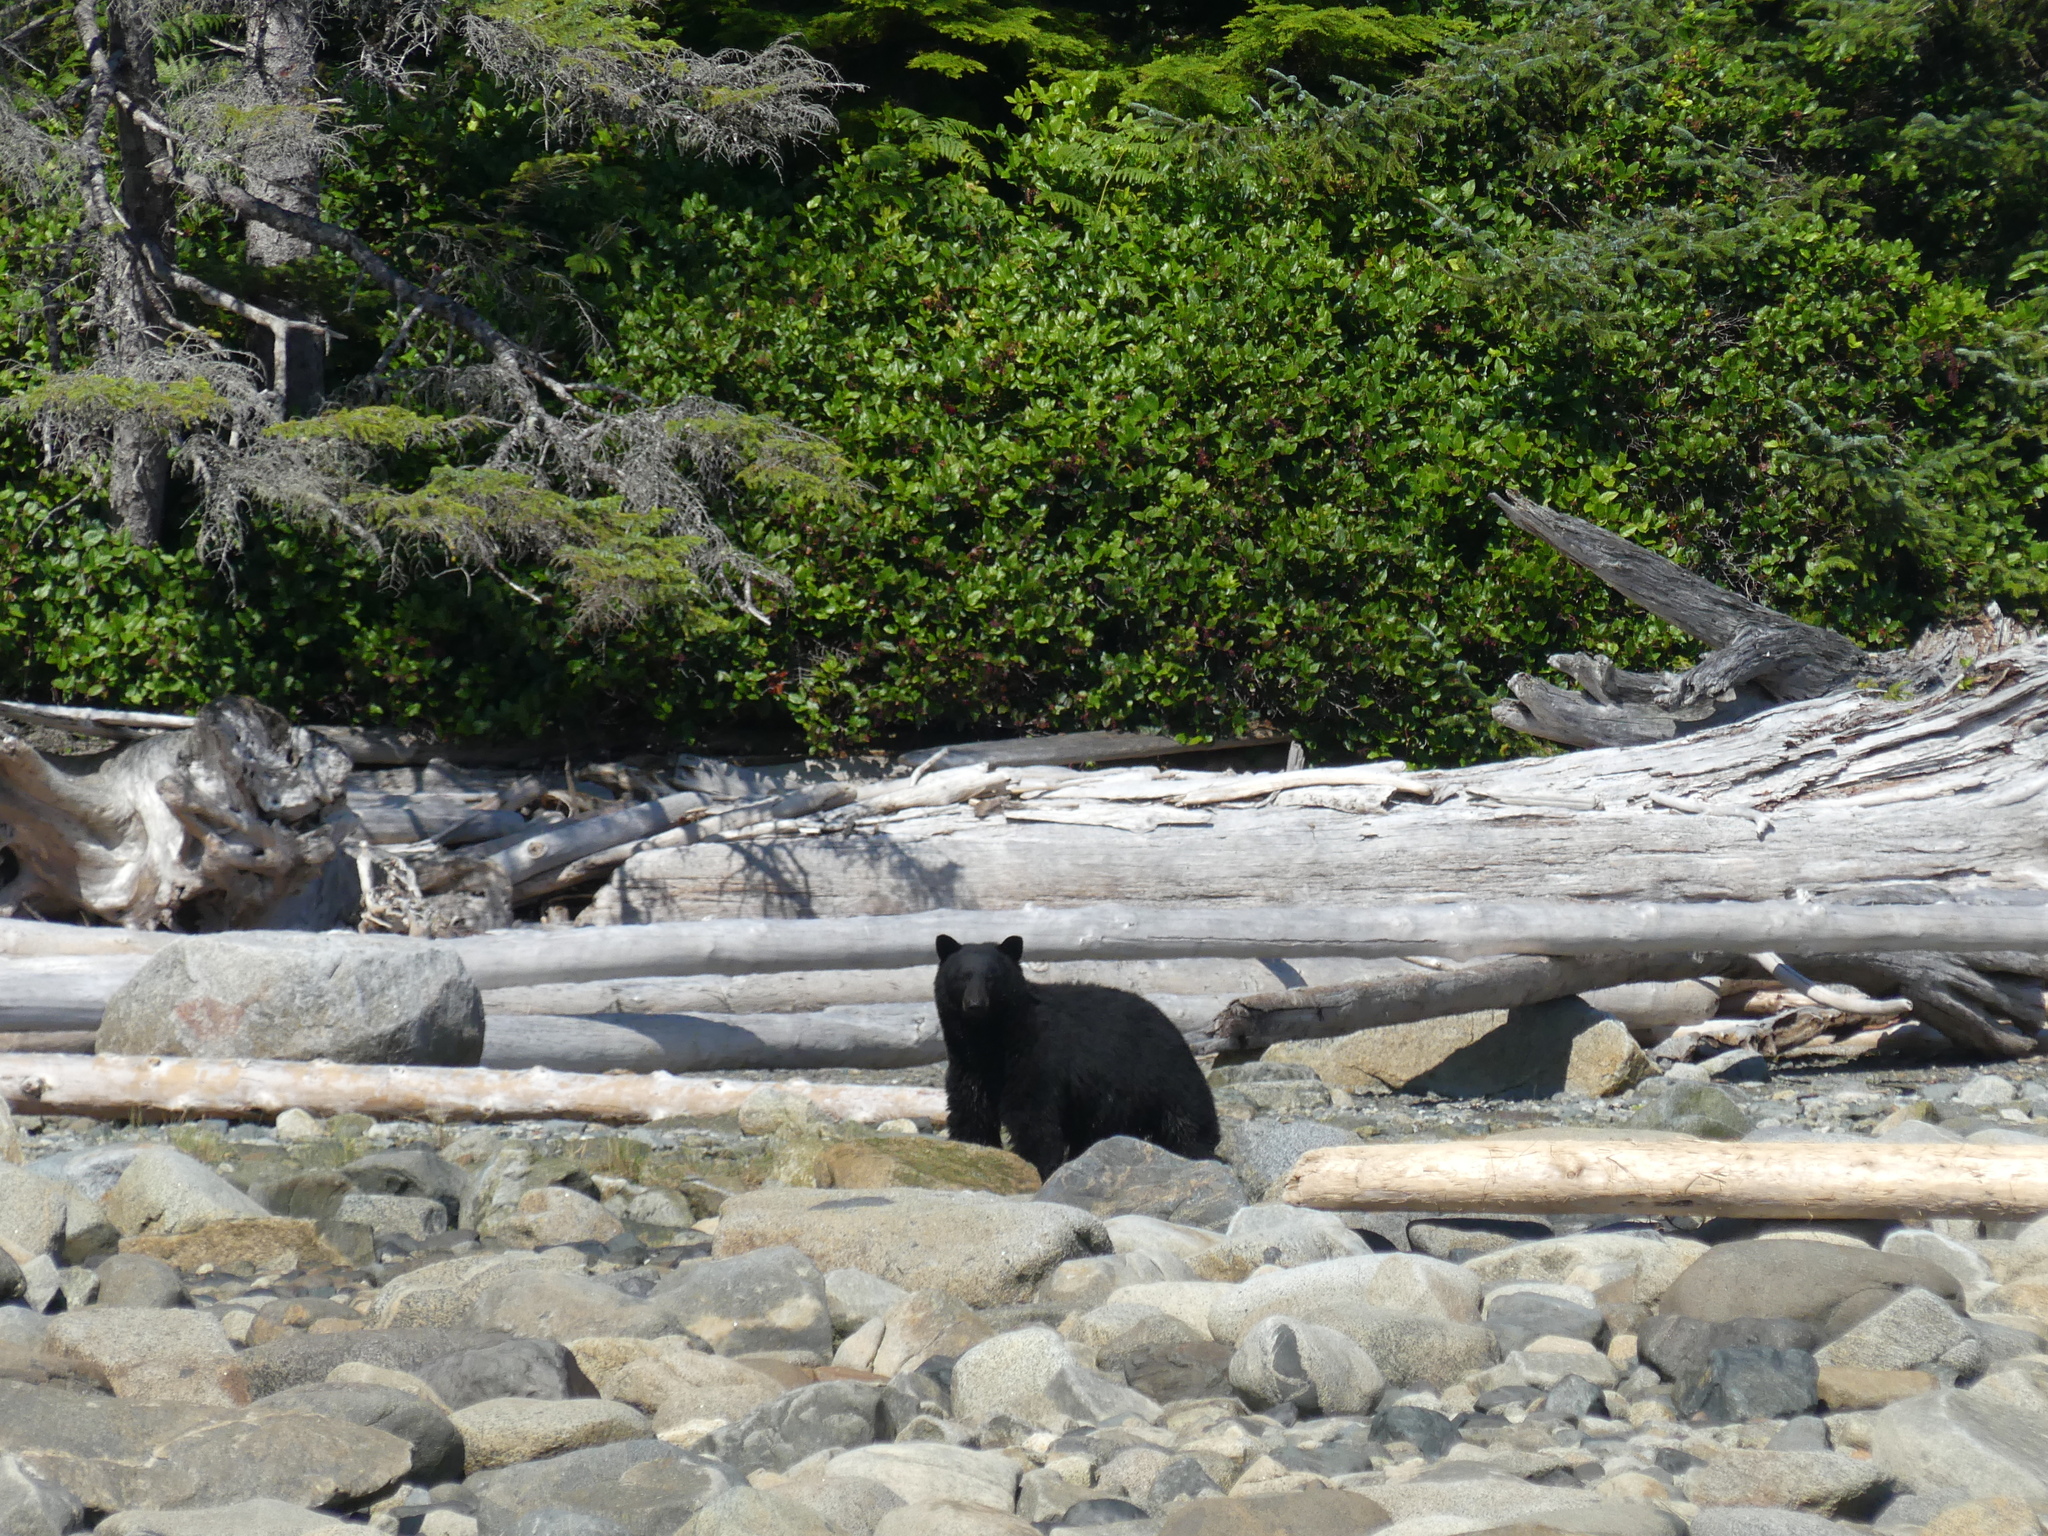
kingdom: Animalia
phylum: Chordata
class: Mammalia
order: Carnivora
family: Ursidae
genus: Ursus
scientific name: Ursus americanus
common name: American black bear
